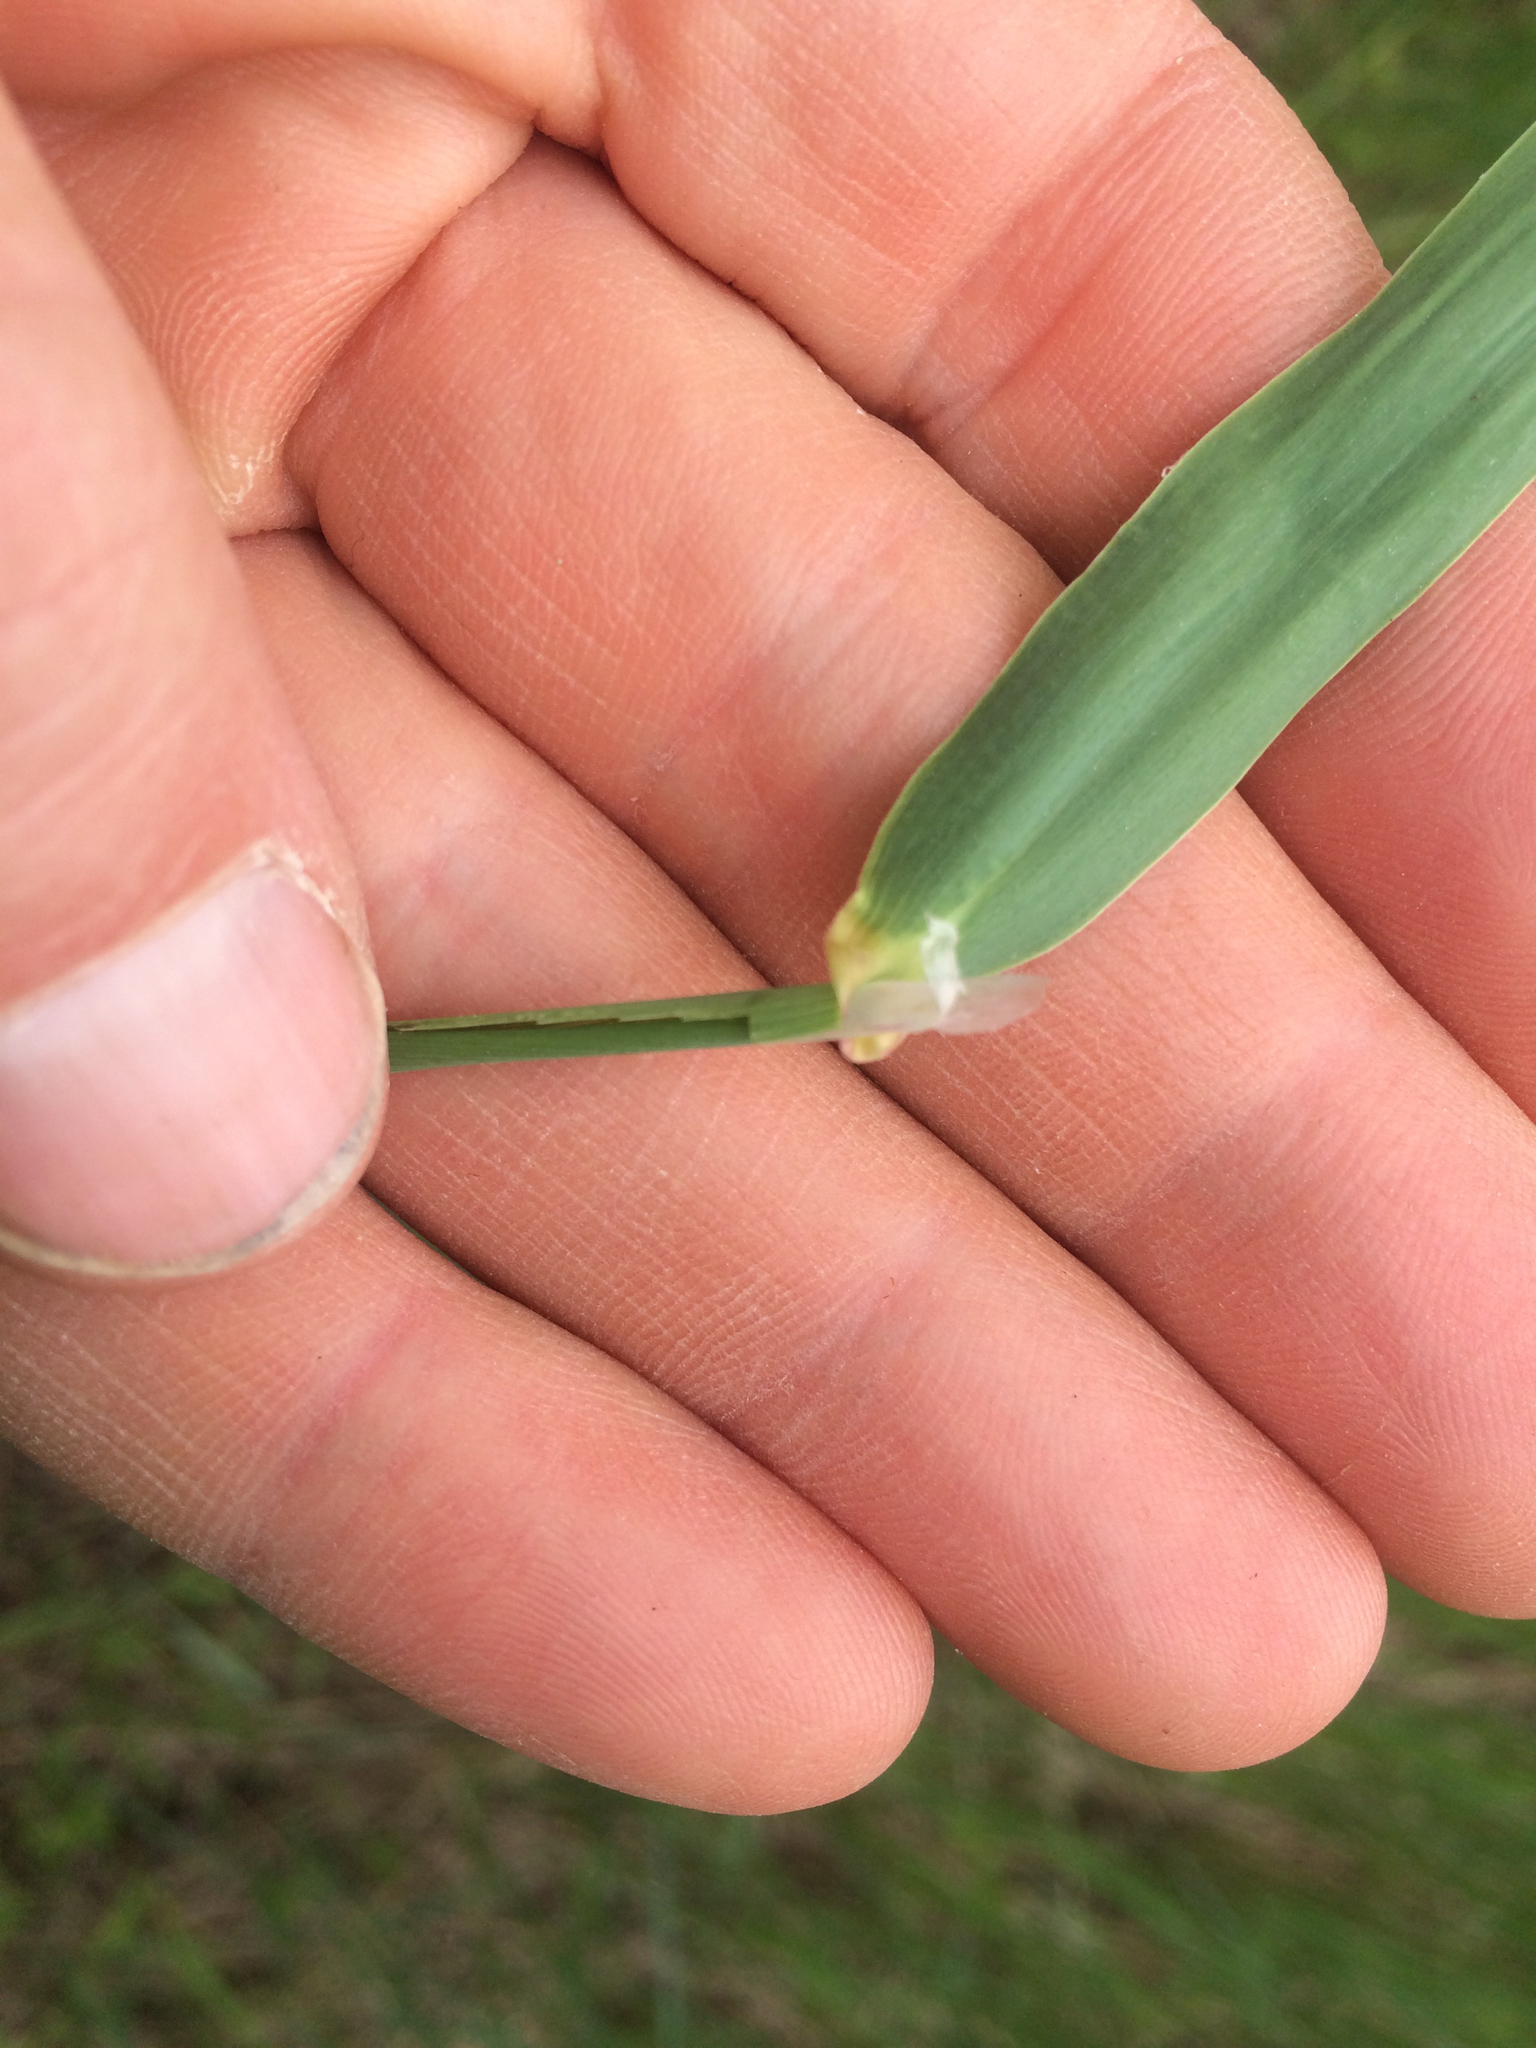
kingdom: Plantae
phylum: Tracheophyta
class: Liliopsida
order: Poales
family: Poaceae
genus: Phalaris
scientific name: Phalaris arundinacea
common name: Reed canary-grass
